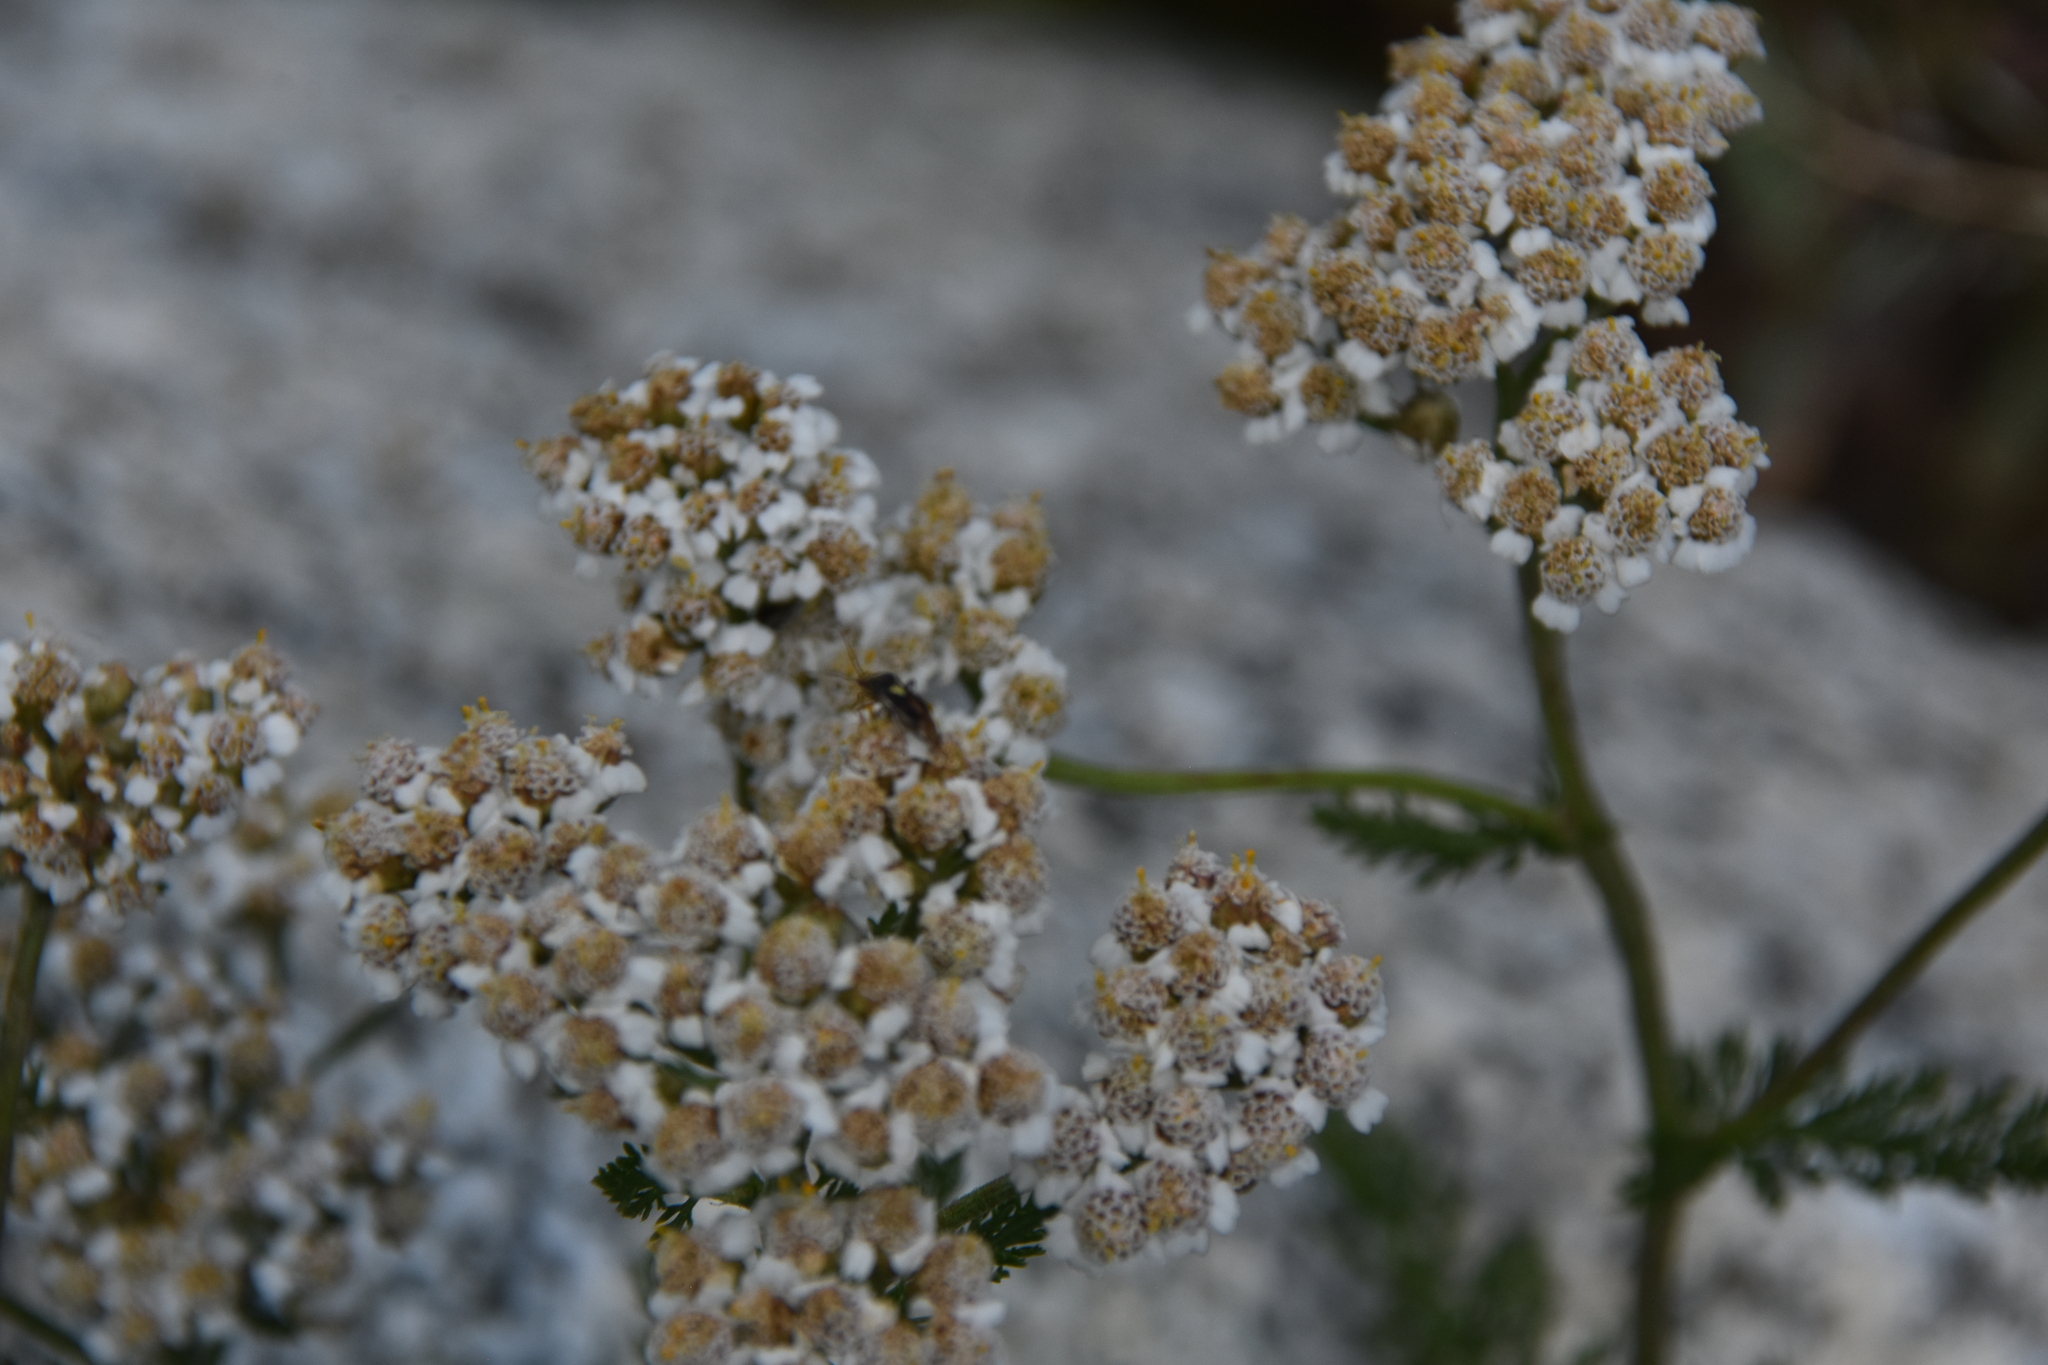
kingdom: Plantae
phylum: Tracheophyta
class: Magnoliopsida
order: Asterales
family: Asteraceae
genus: Achillea
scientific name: Achillea millefolium
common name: Yarrow
